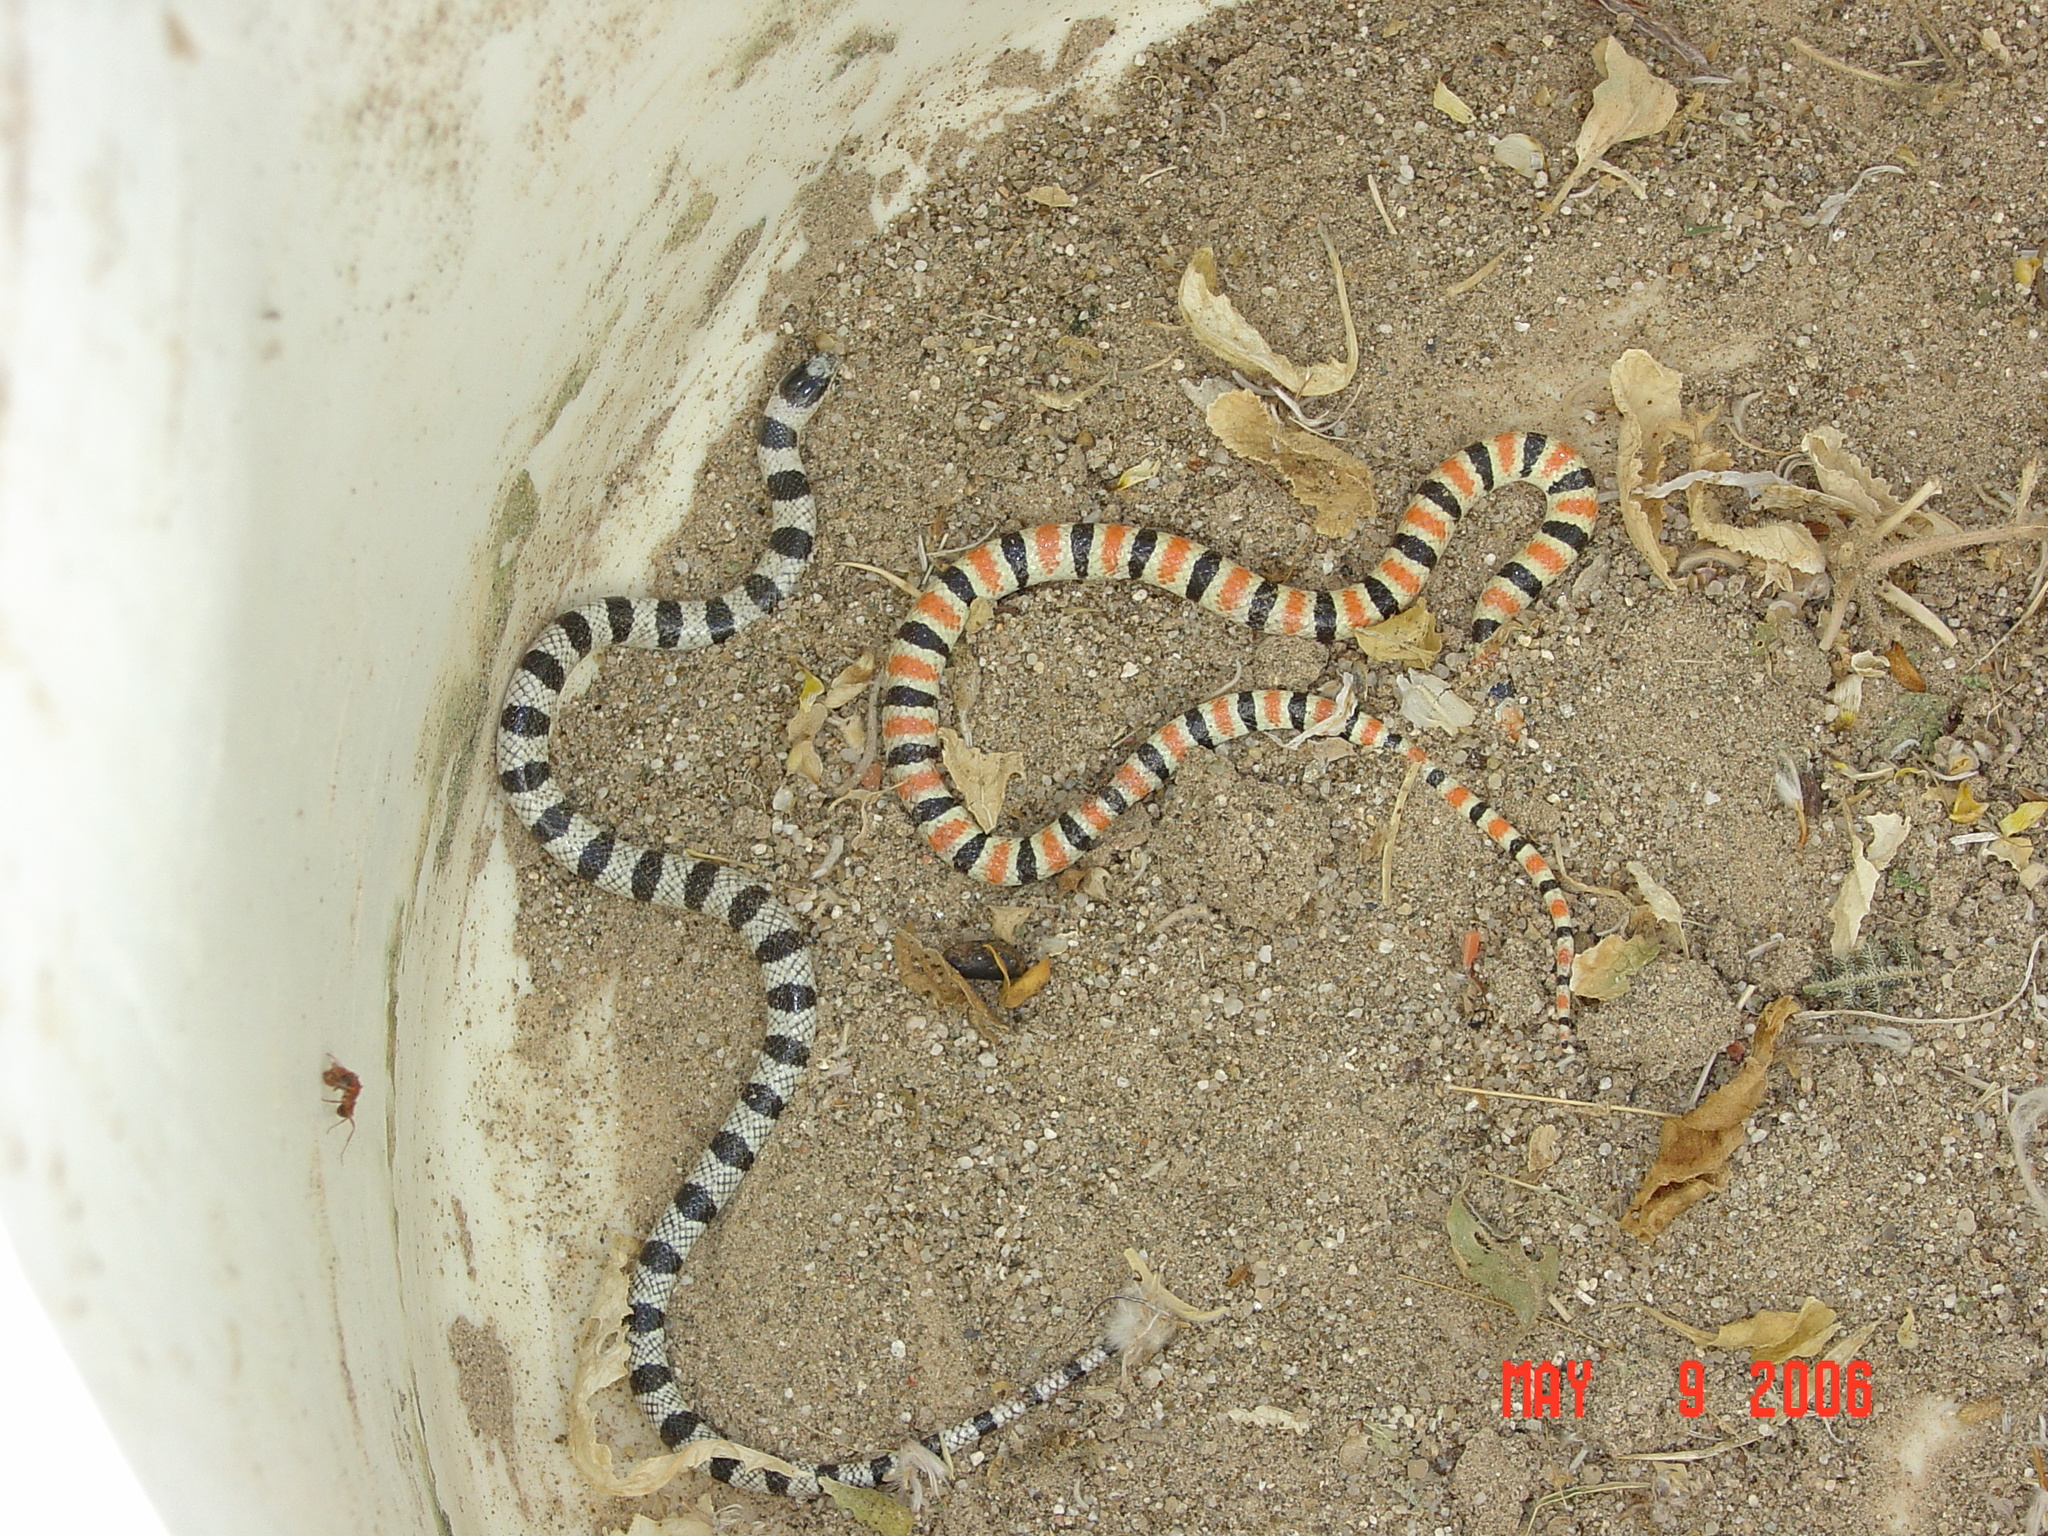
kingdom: Animalia
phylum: Chordata
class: Squamata
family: Colubridae
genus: Sonora
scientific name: Sonora annulata
